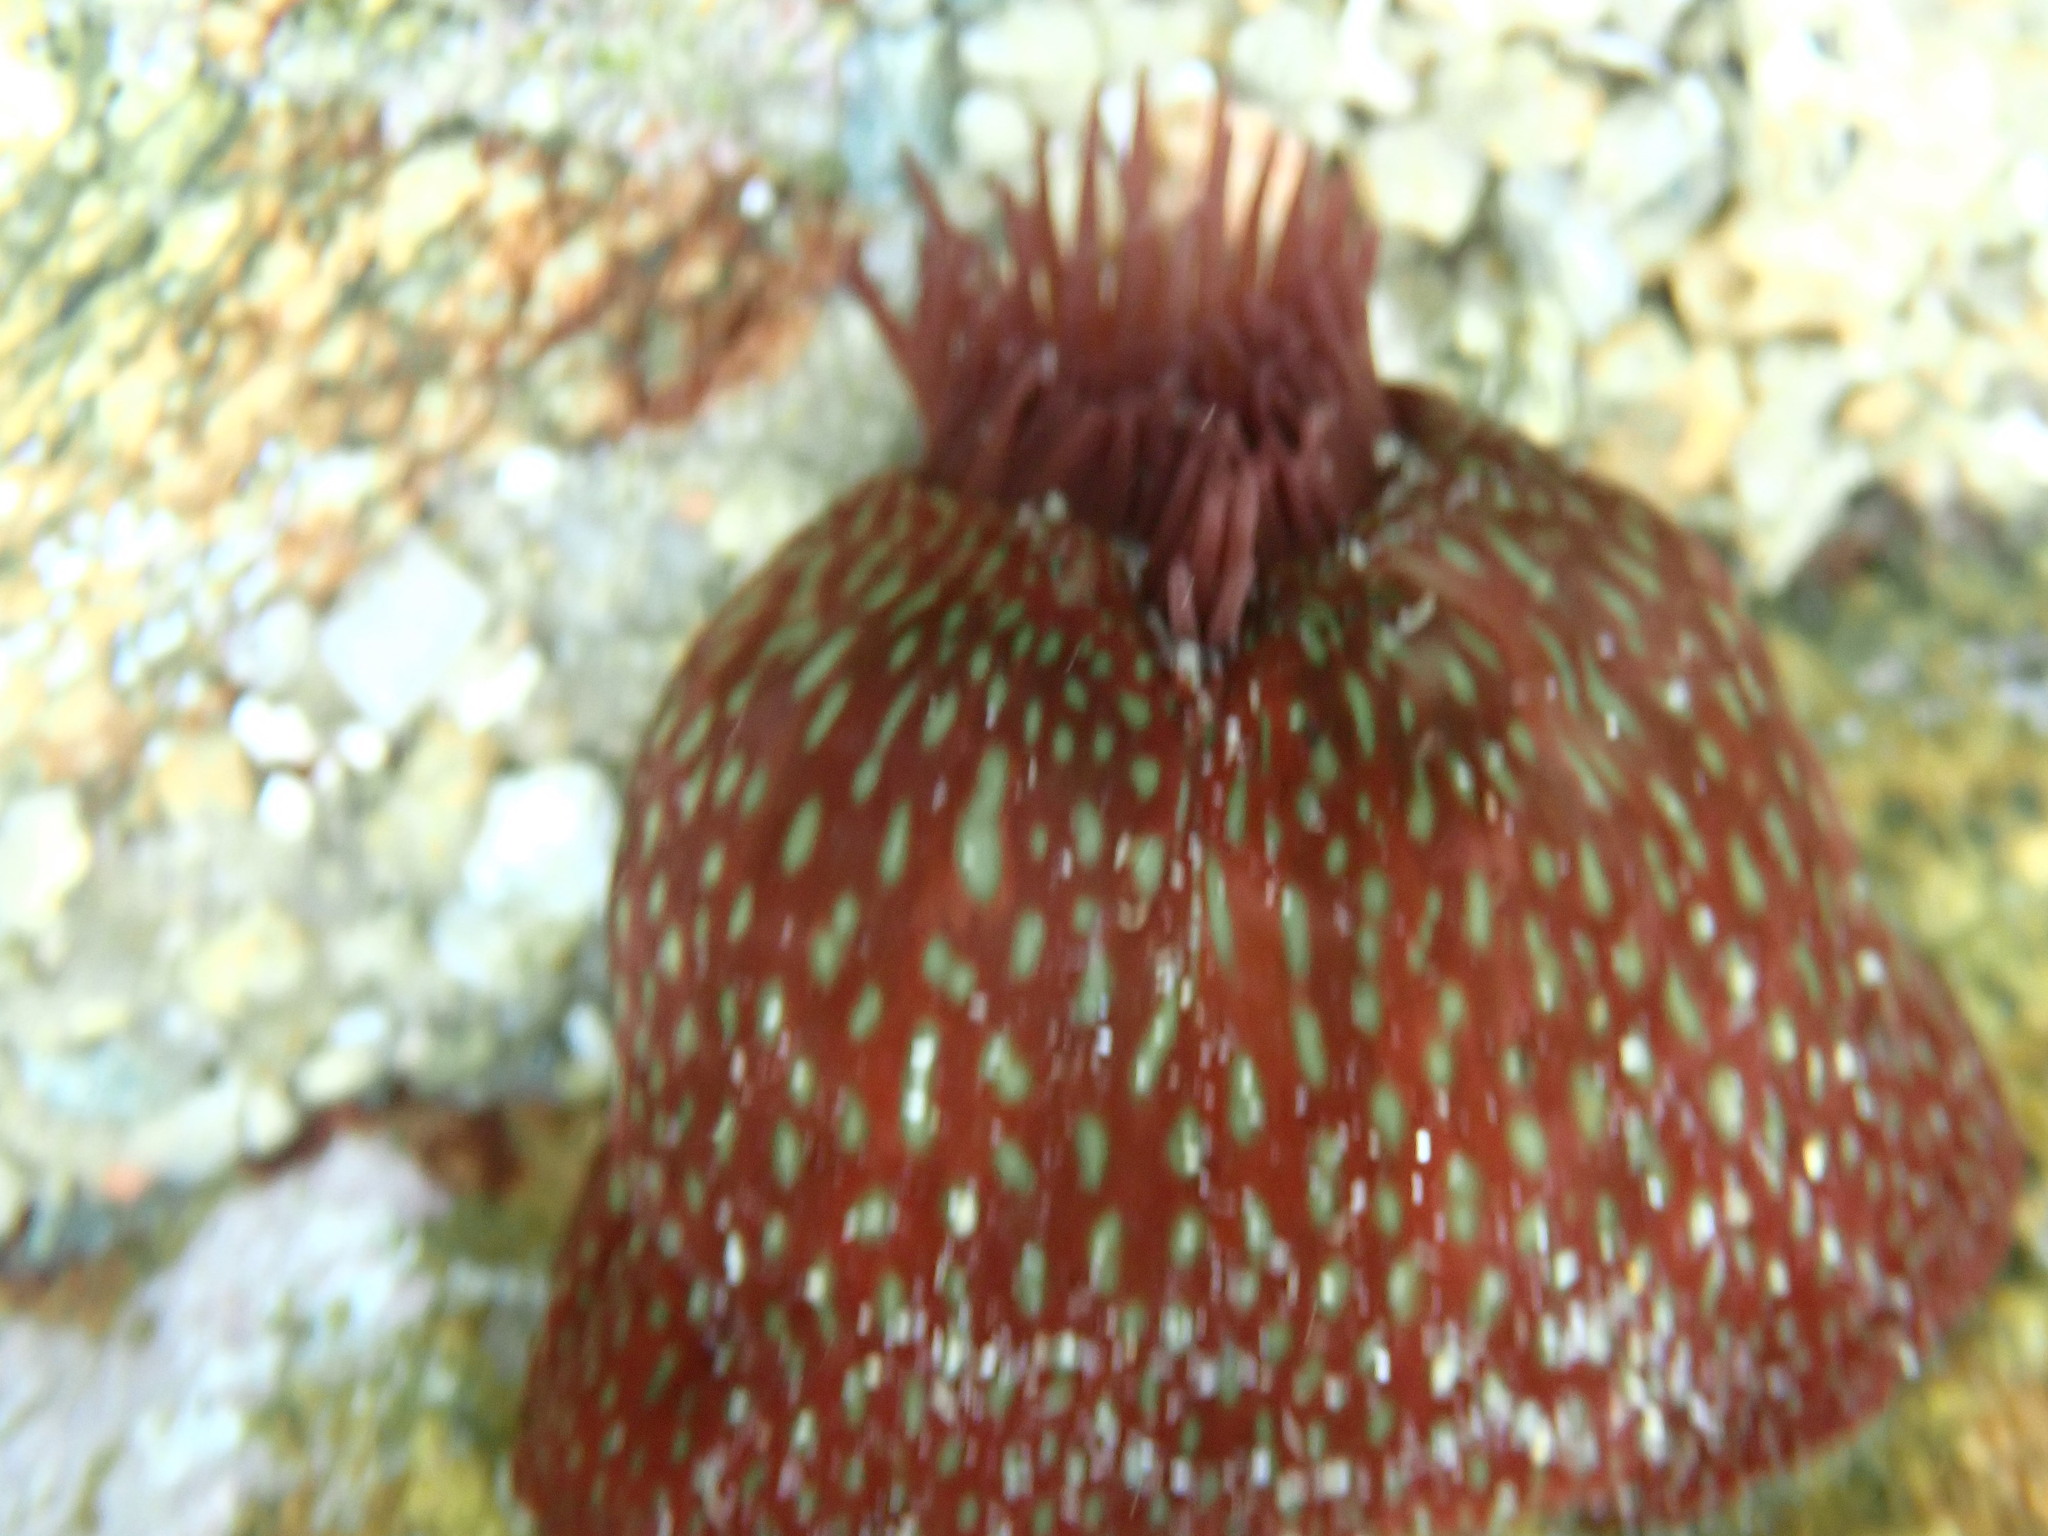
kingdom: Animalia
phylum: Cnidaria
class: Anthozoa
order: Actiniaria
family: Actiniidae
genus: Actinia
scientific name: Actinia fragacea
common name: Strawberry anemone
